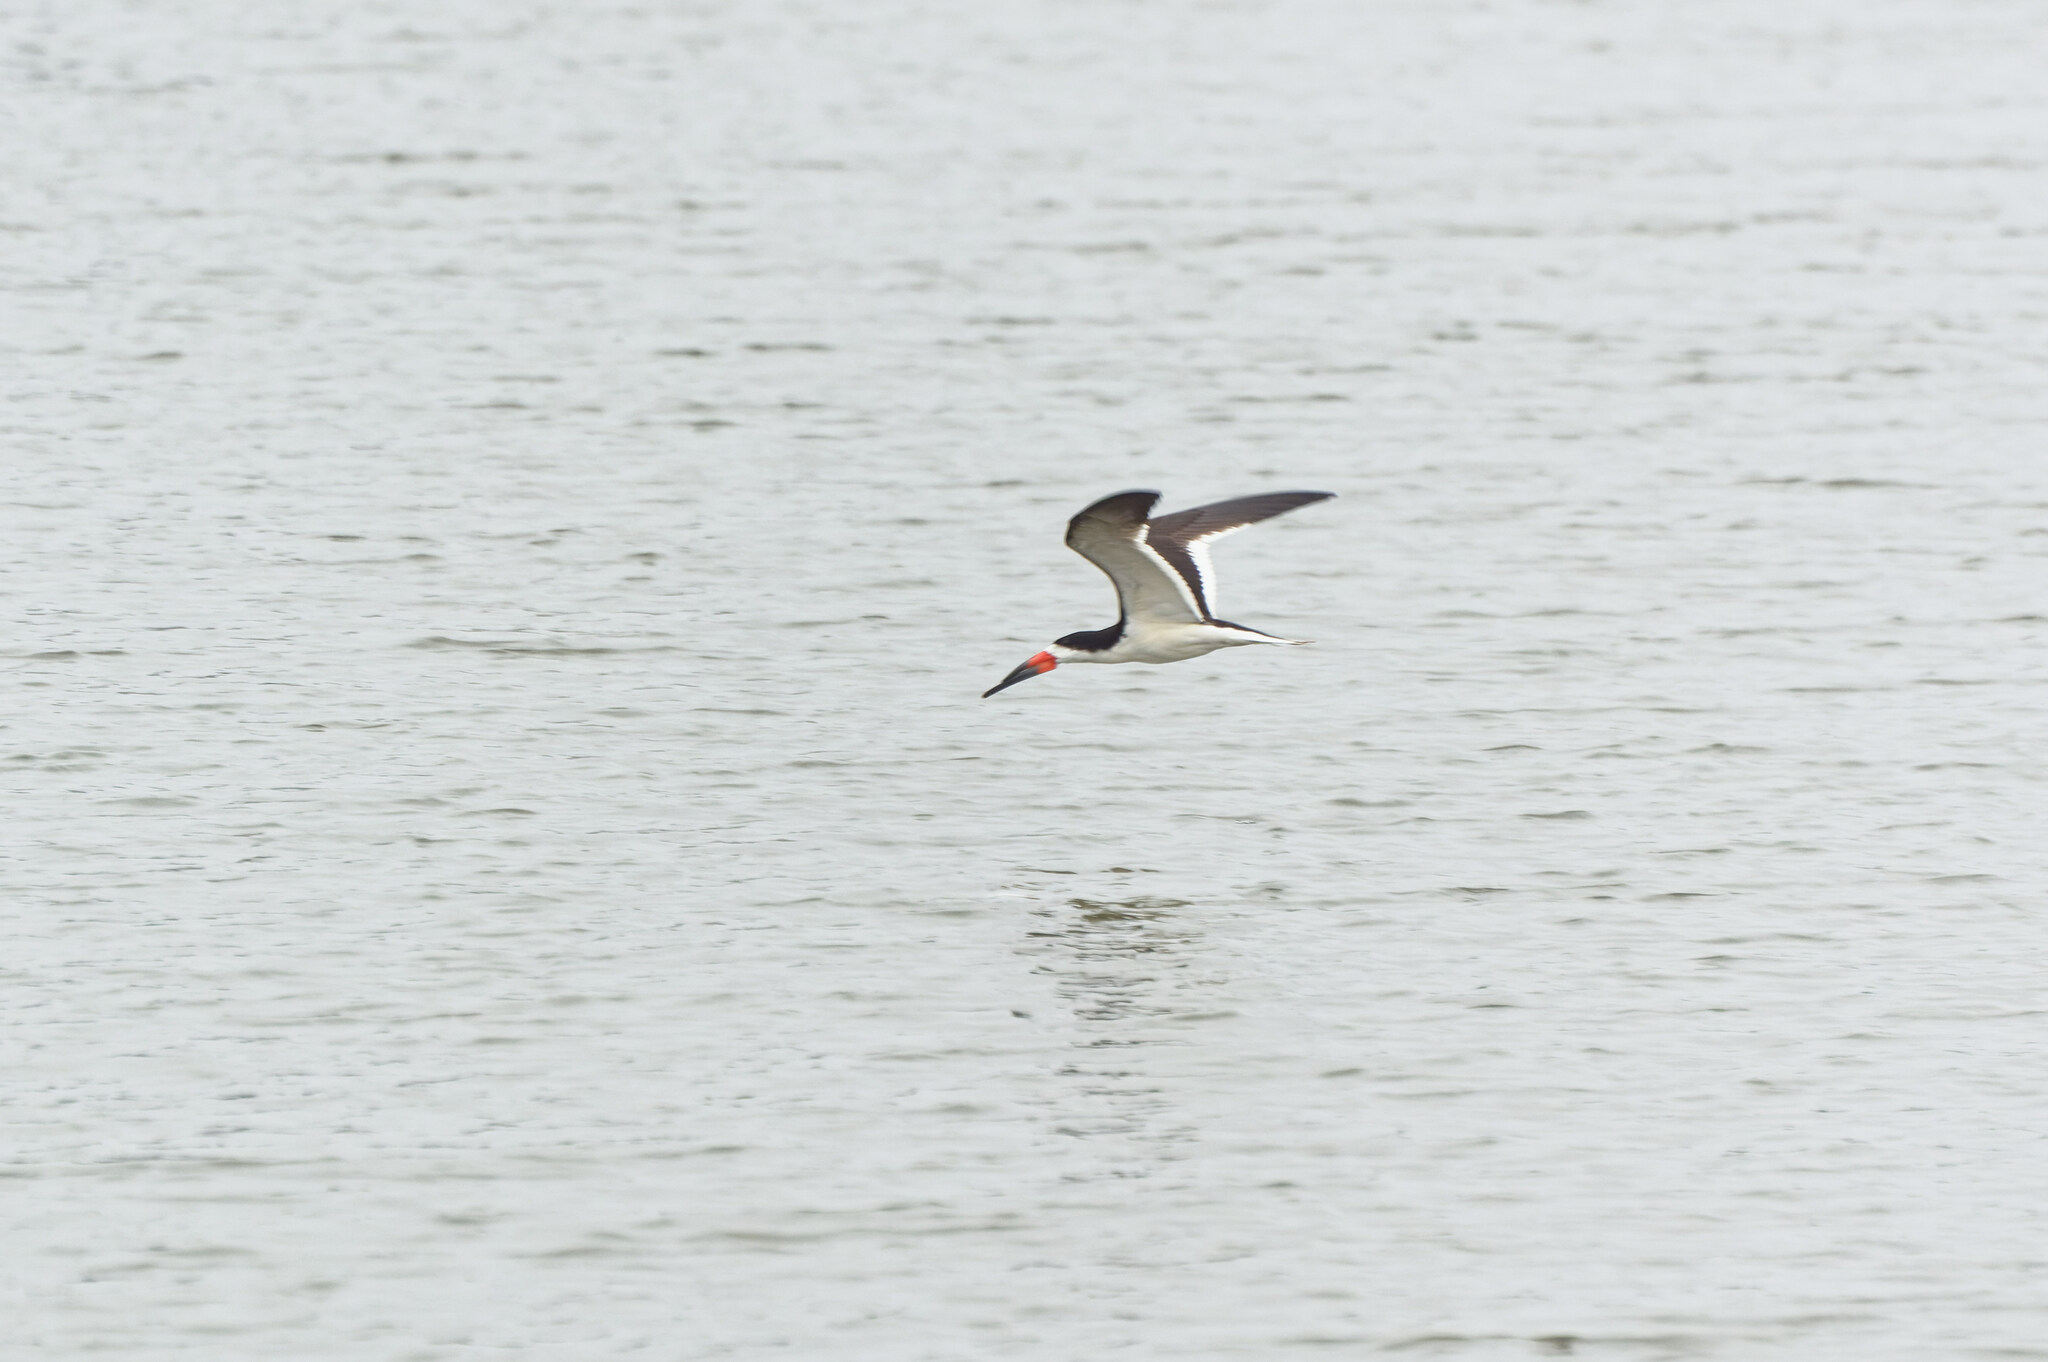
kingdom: Animalia
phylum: Chordata
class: Aves
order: Charadriiformes
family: Laridae
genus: Rynchops
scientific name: Rynchops niger
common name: Black skimmer
